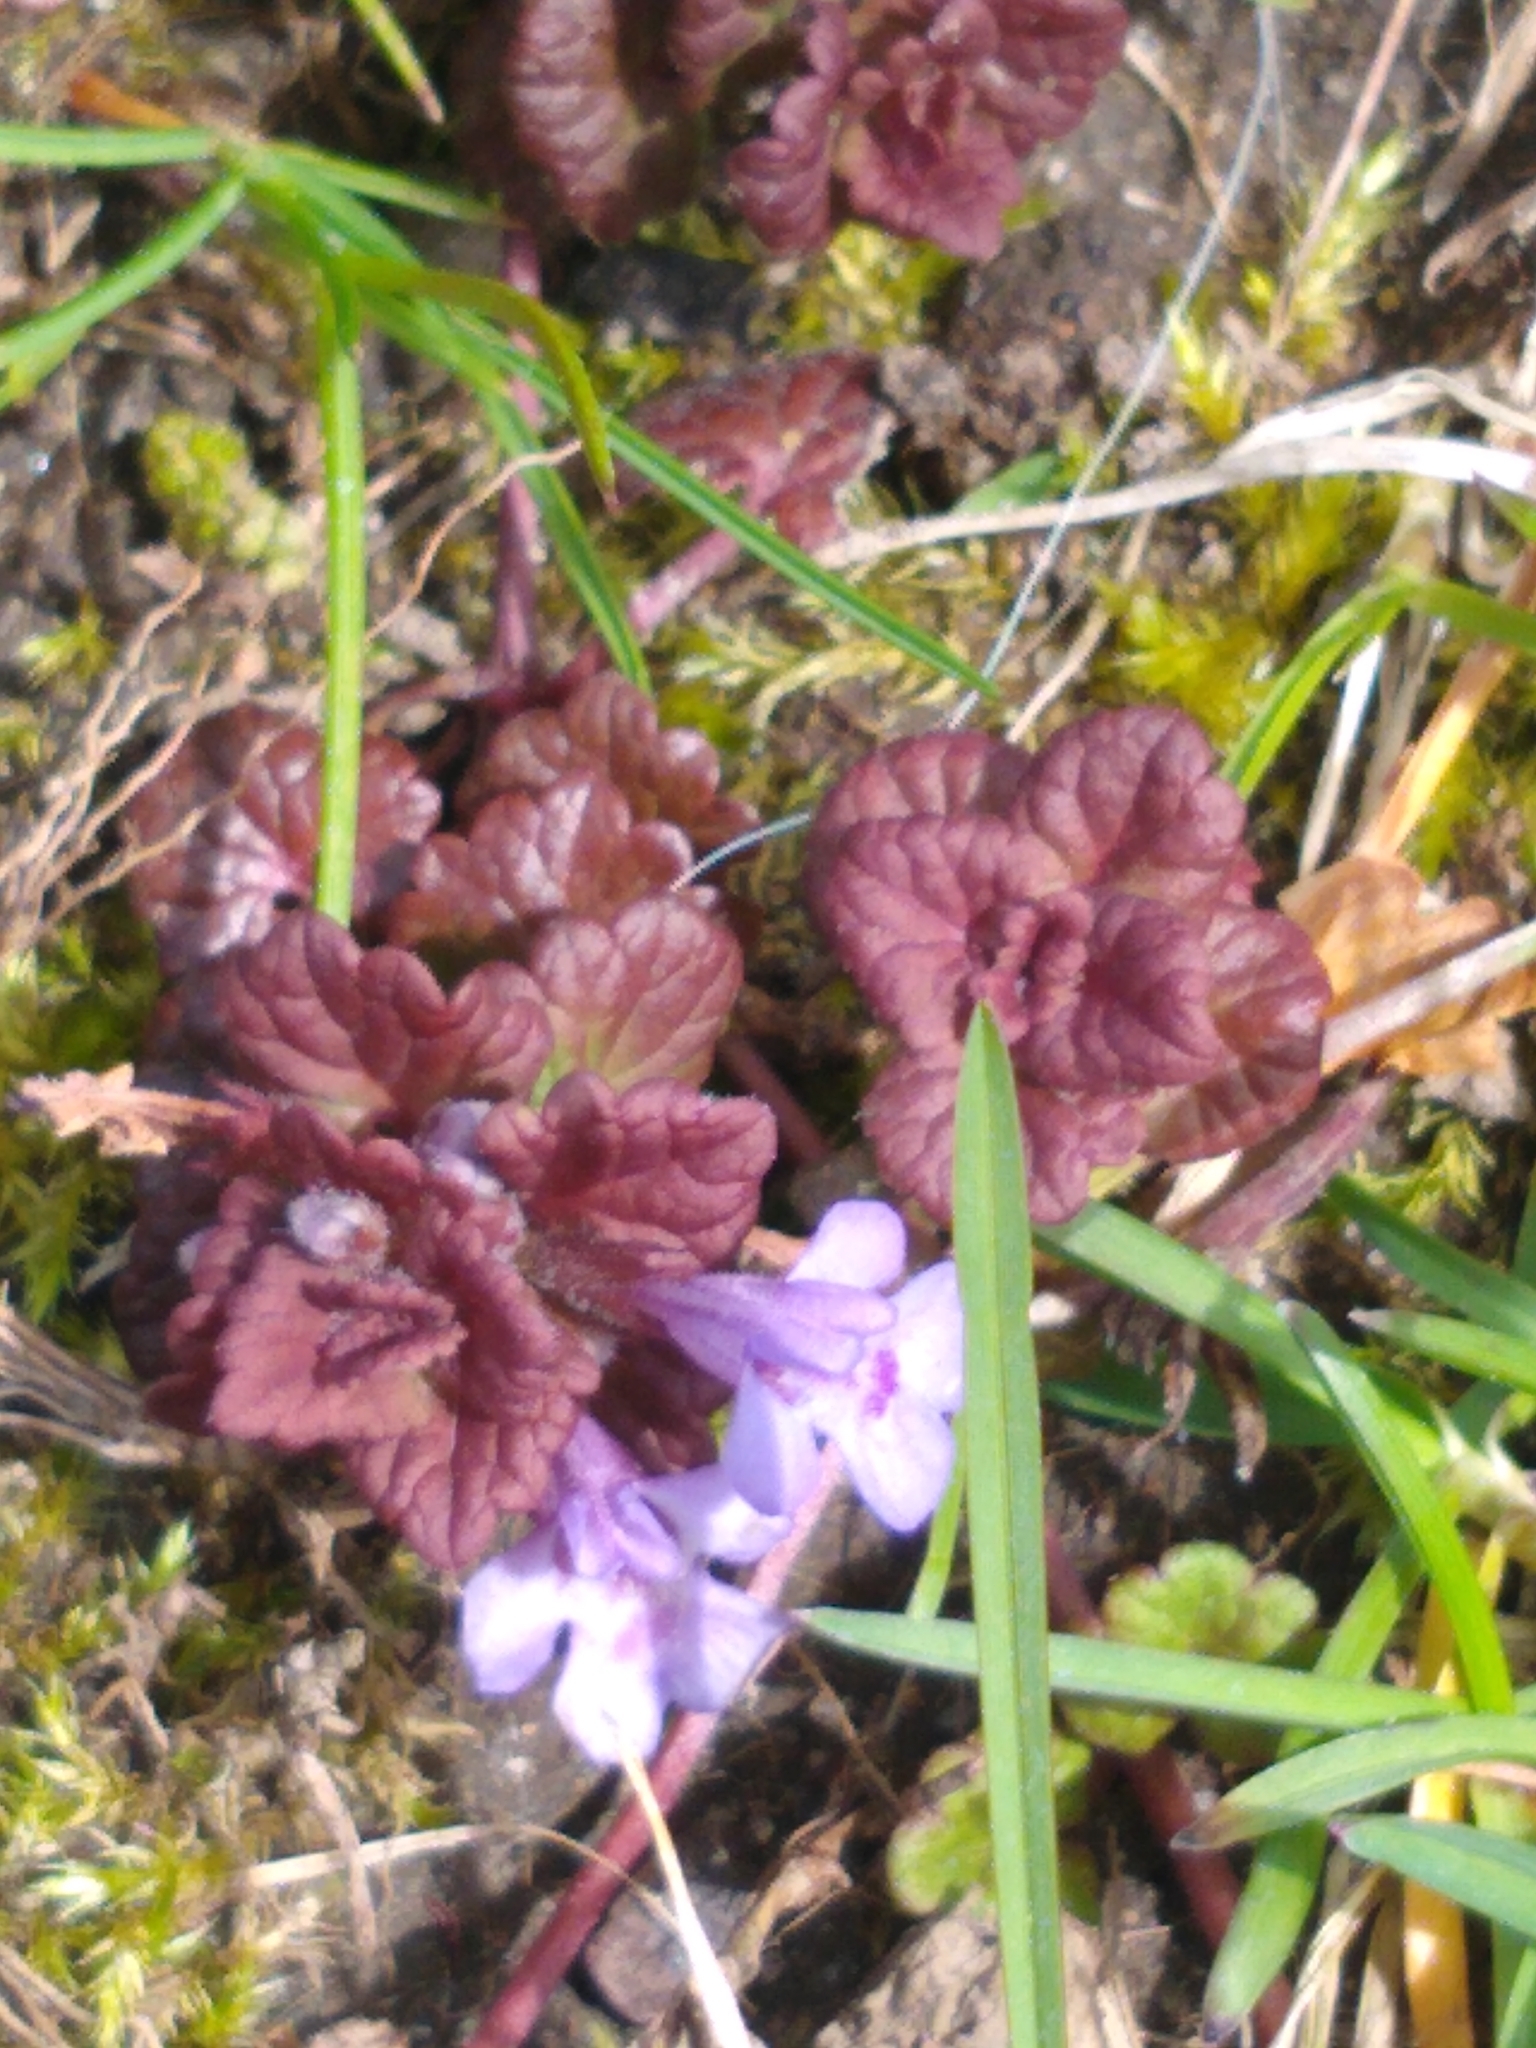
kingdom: Plantae
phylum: Tracheophyta
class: Magnoliopsida
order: Lamiales
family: Lamiaceae
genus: Glechoma
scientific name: Glechoma hederacea
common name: Ground ivy
